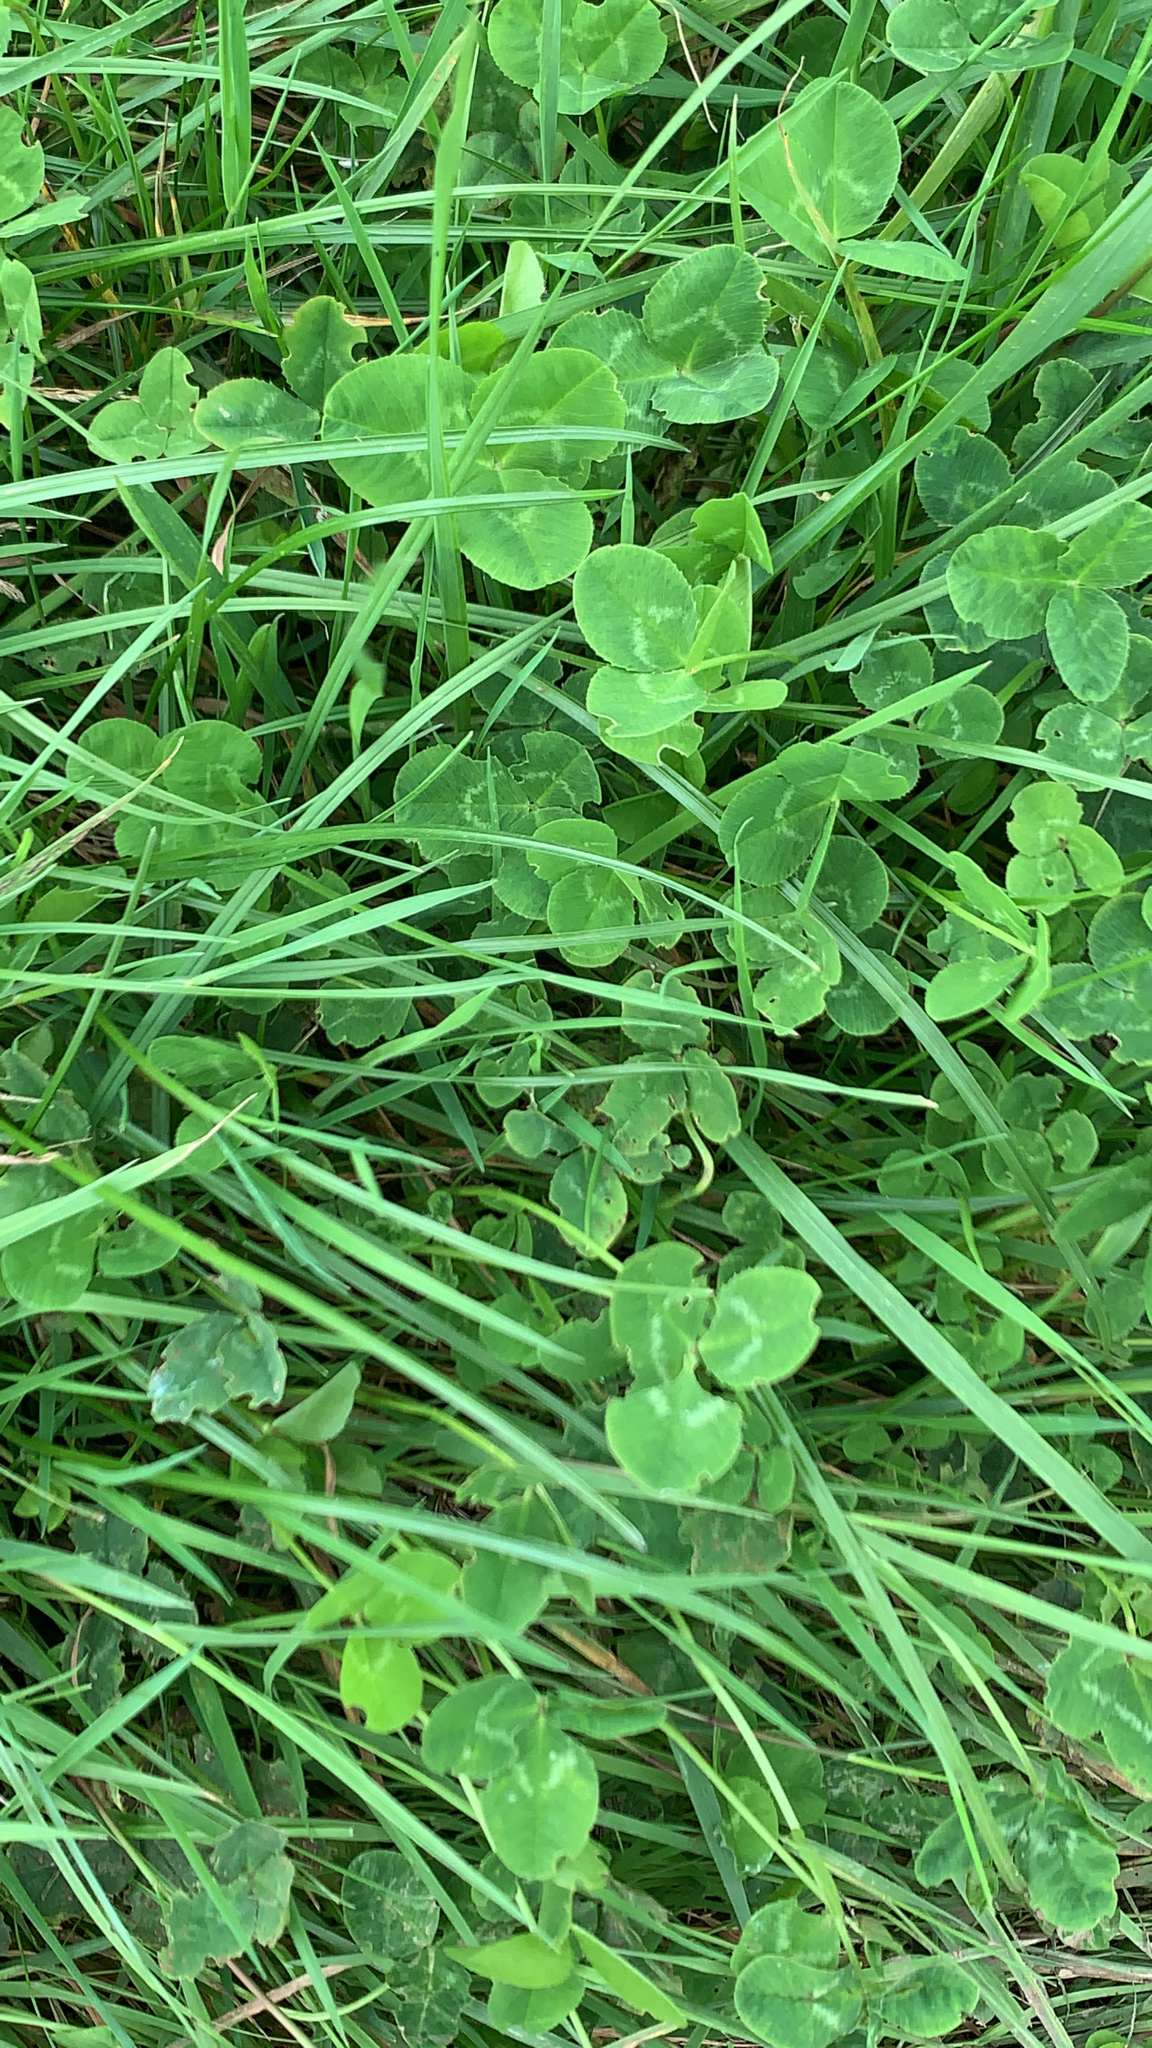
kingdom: Plantae
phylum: Tracheophyta
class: Magnoliopsida
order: Fabales
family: Fabaceae
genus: Trifolium
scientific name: Trifolium repens
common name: White clover
